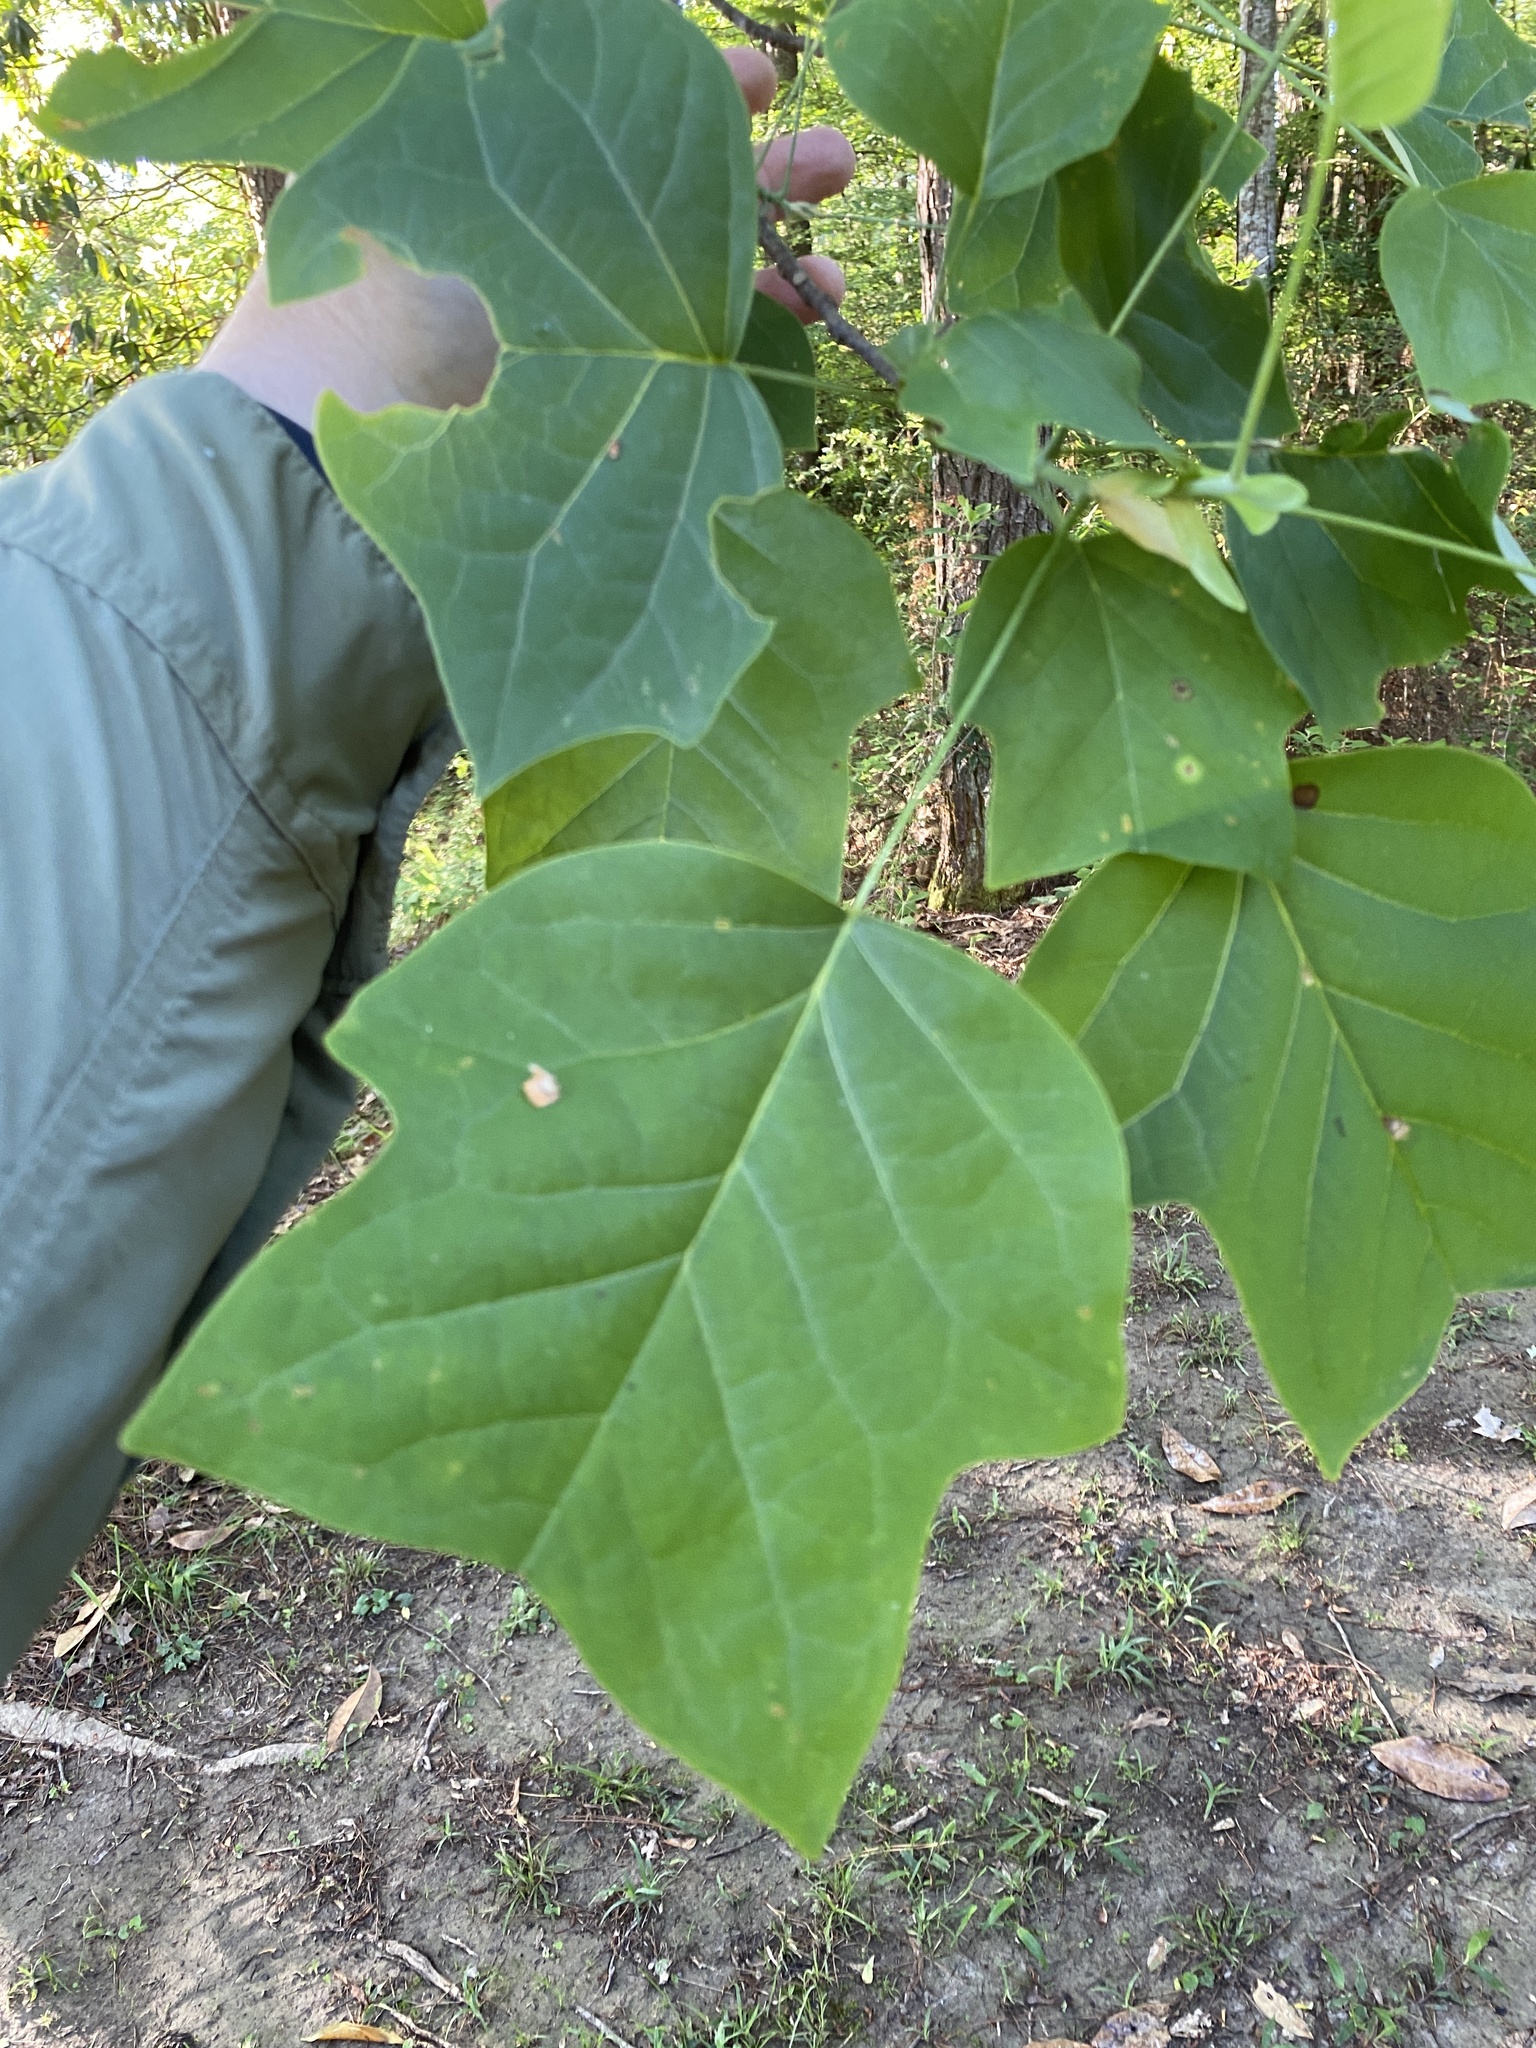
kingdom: Plantae
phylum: Tracheophyta
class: Magnoliopsida
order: Magnoliales
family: Magnoliaceae
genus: Liriodendron
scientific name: Liriodendron tulipifera
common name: Tulip tree
